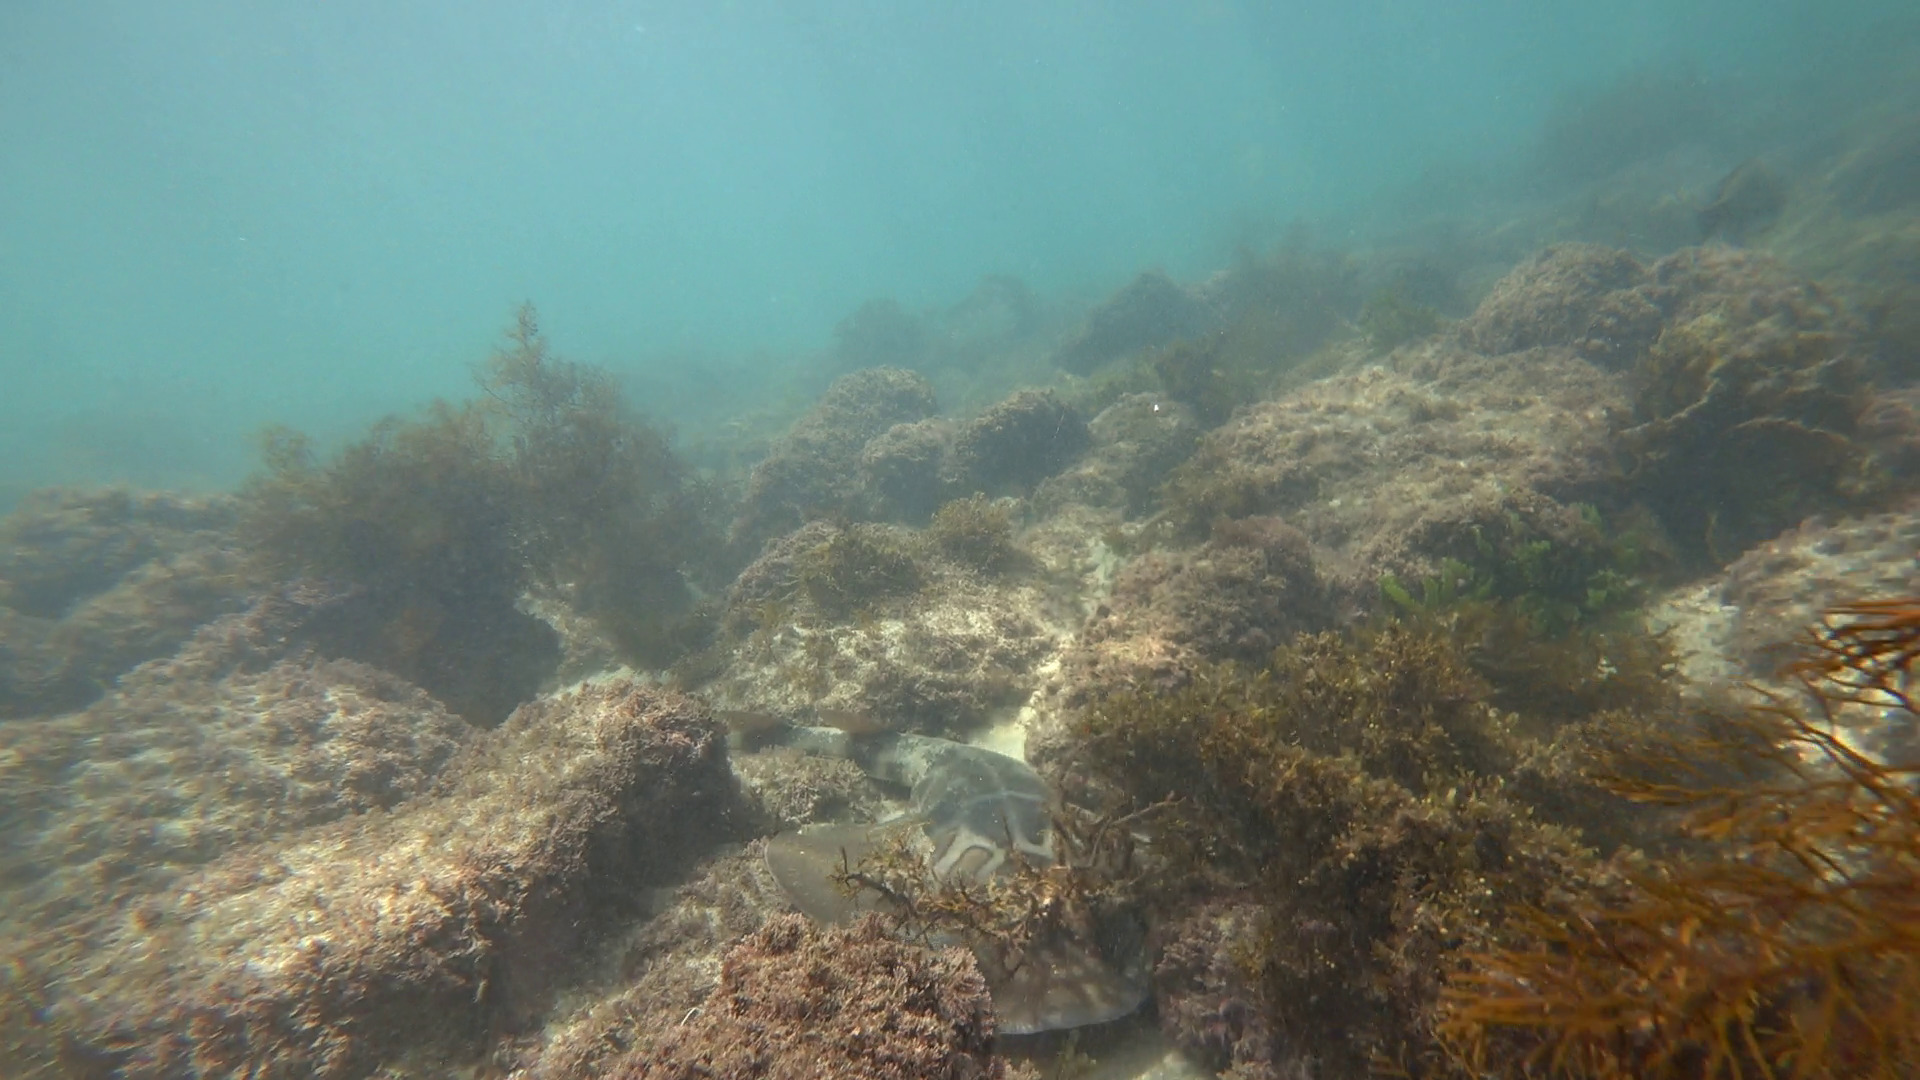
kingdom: Animalia
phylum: Chordata
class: Elasmobranchii
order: Rhinopristiformes
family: Rhinobatidae
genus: Trygonorrhina
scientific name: Trygonorrhina fasciata
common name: Southern fiddler
